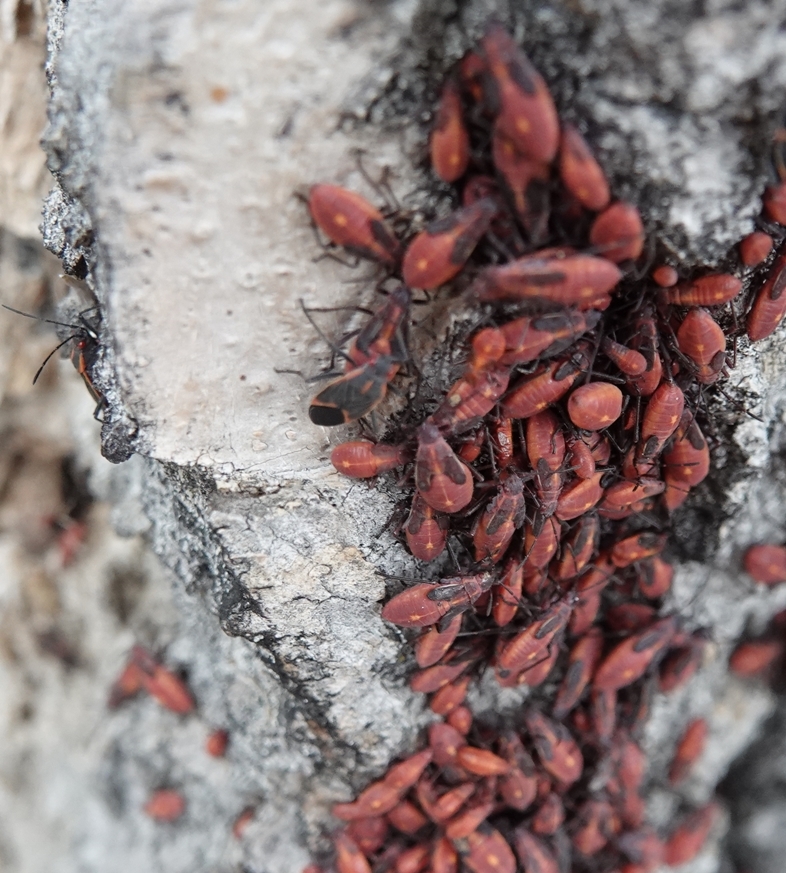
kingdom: Animalia
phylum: Arthropoda
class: Insecta
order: Hemiptera
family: Rhopalidae
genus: Boisea
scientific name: Boisea trivittata
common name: Boxelder bug
